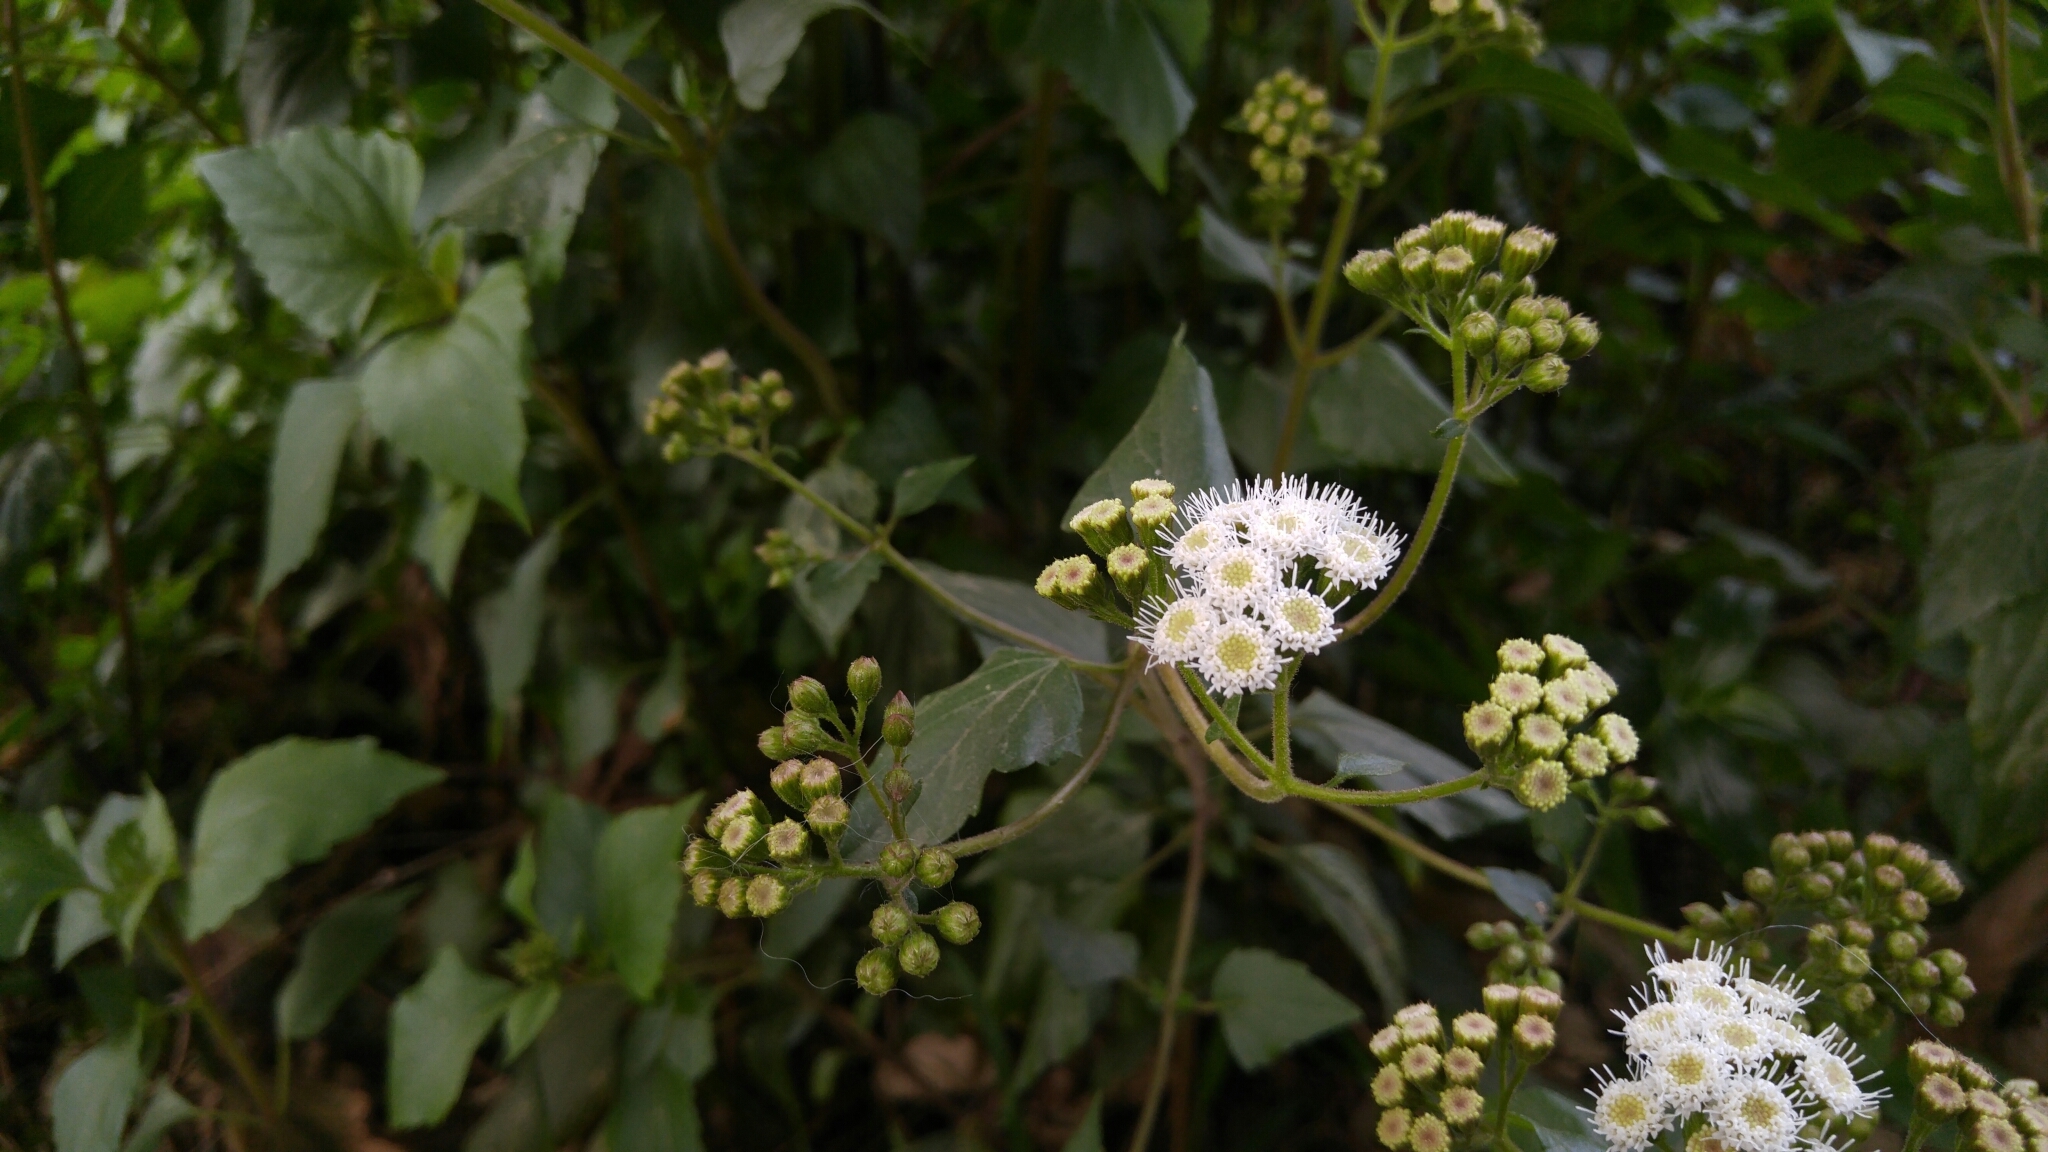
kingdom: Plantae
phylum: Tracheophyta
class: Magnoliopsida
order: Asterales
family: Asteraceae
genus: Ageratina
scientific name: Ageratina adenophora
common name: Sticky snakeroot
